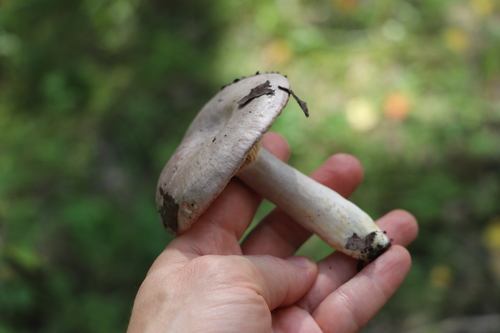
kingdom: Fungi
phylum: Basidiomycota
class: Agaricomycetes
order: Russulales
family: Russulaceae
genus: Lactarius
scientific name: Lactarius flexuosus
